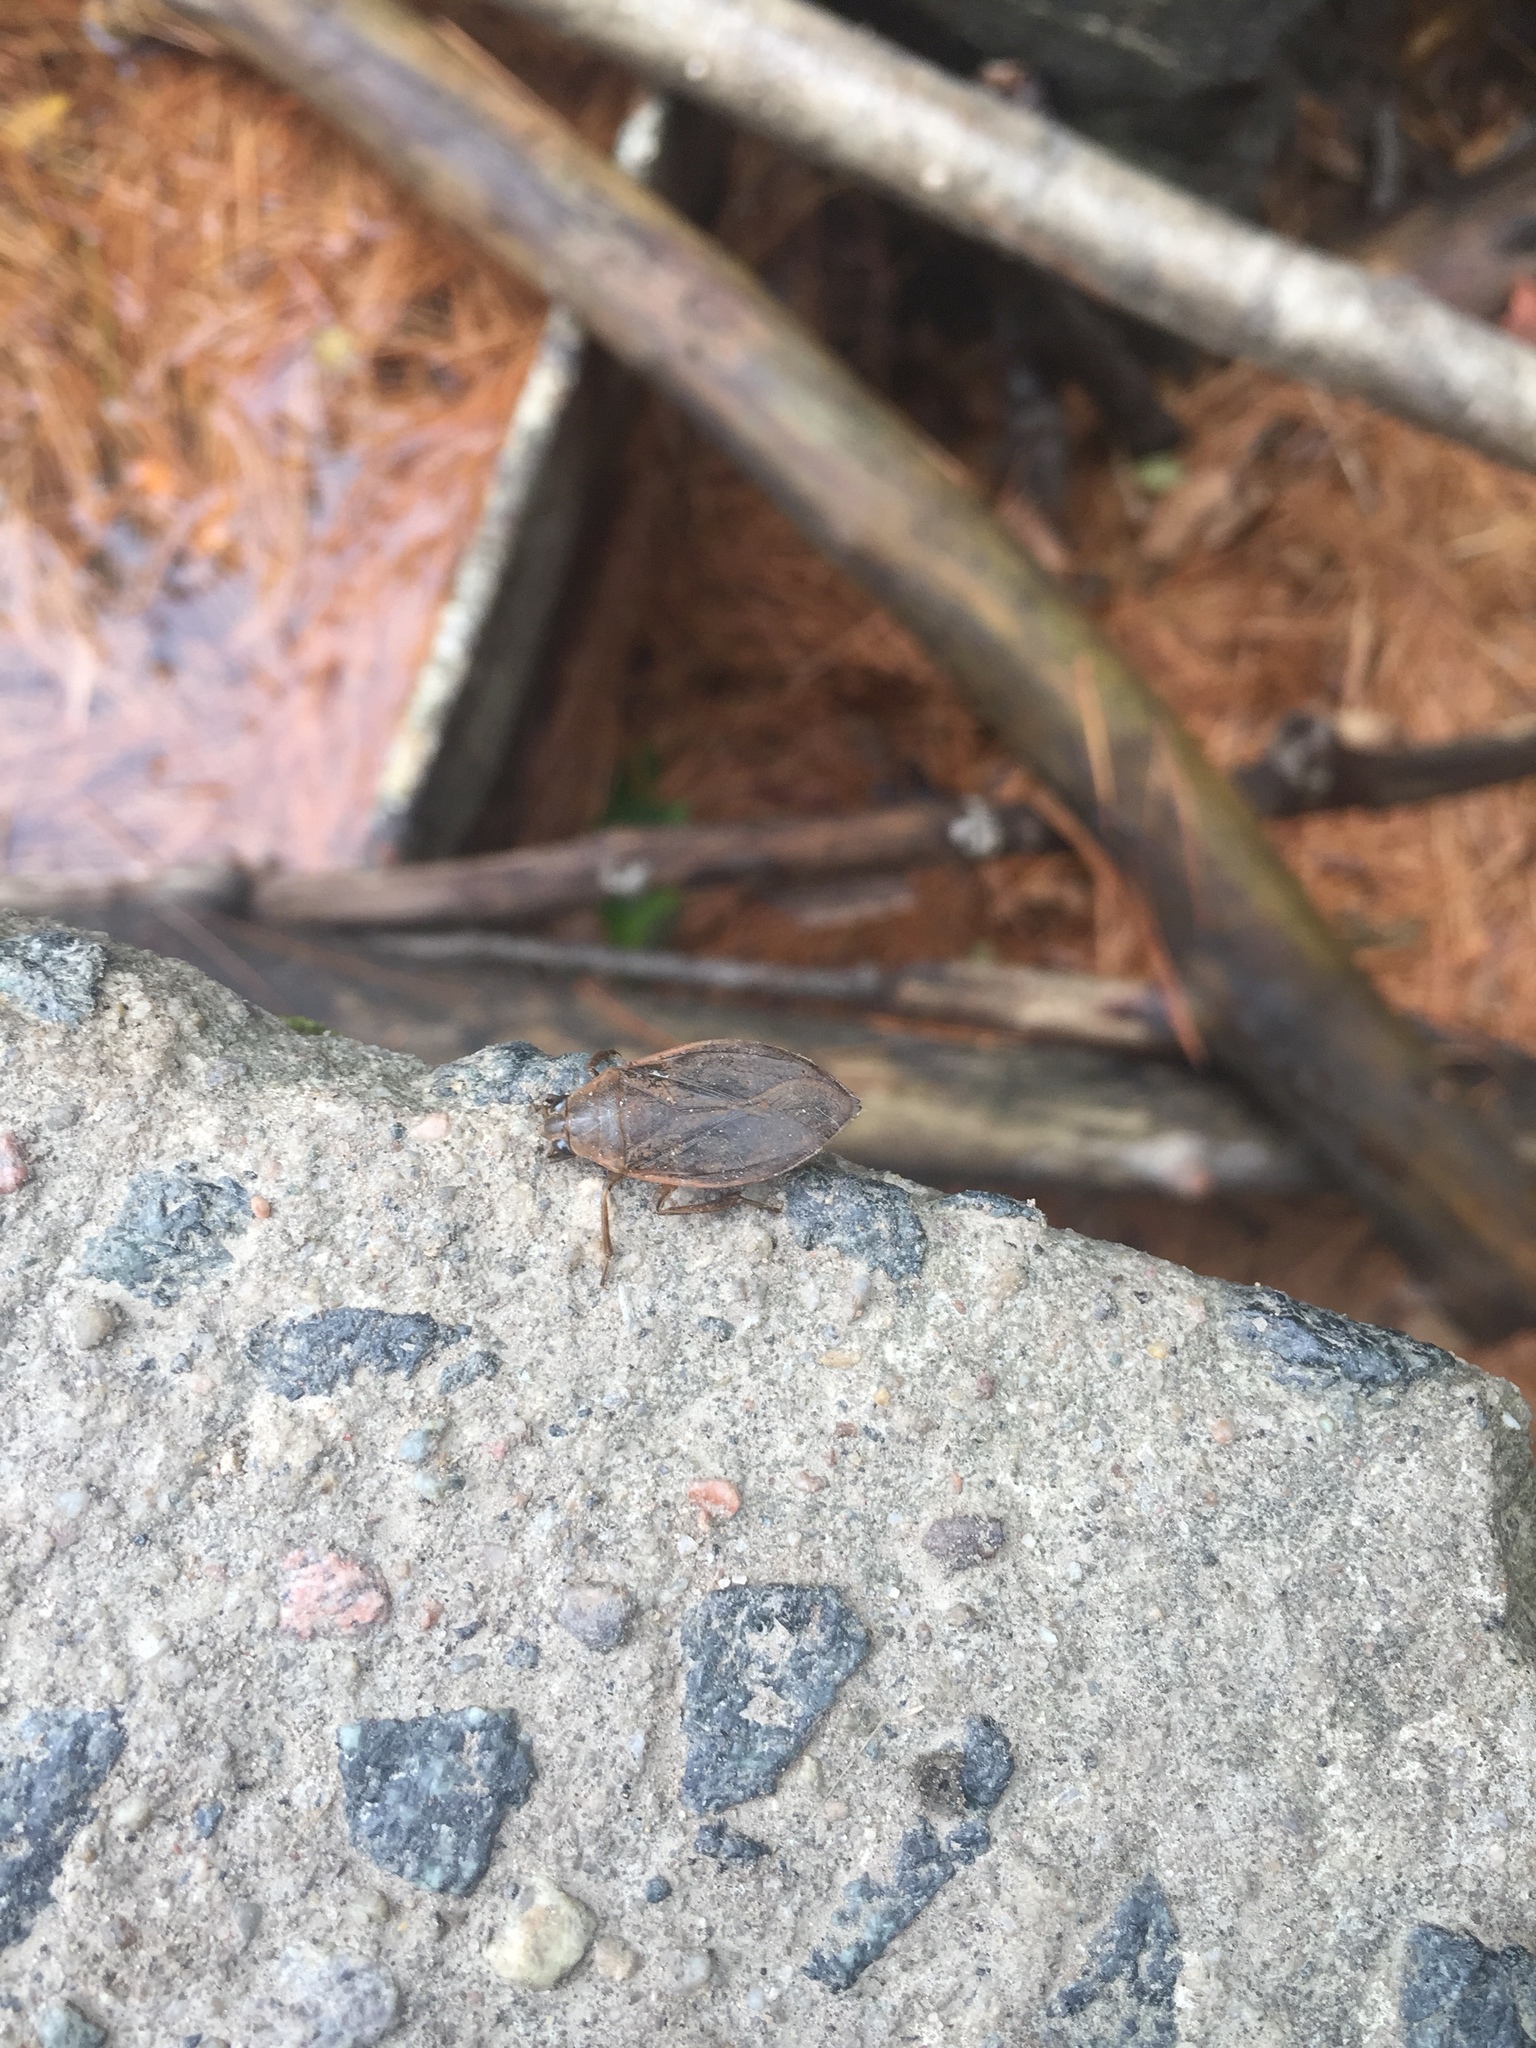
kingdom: Animalia
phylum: Arthropoda
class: Insecta
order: Hemiptera
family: Belostomatidae
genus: Belostoma
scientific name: Belostoma flumineum
